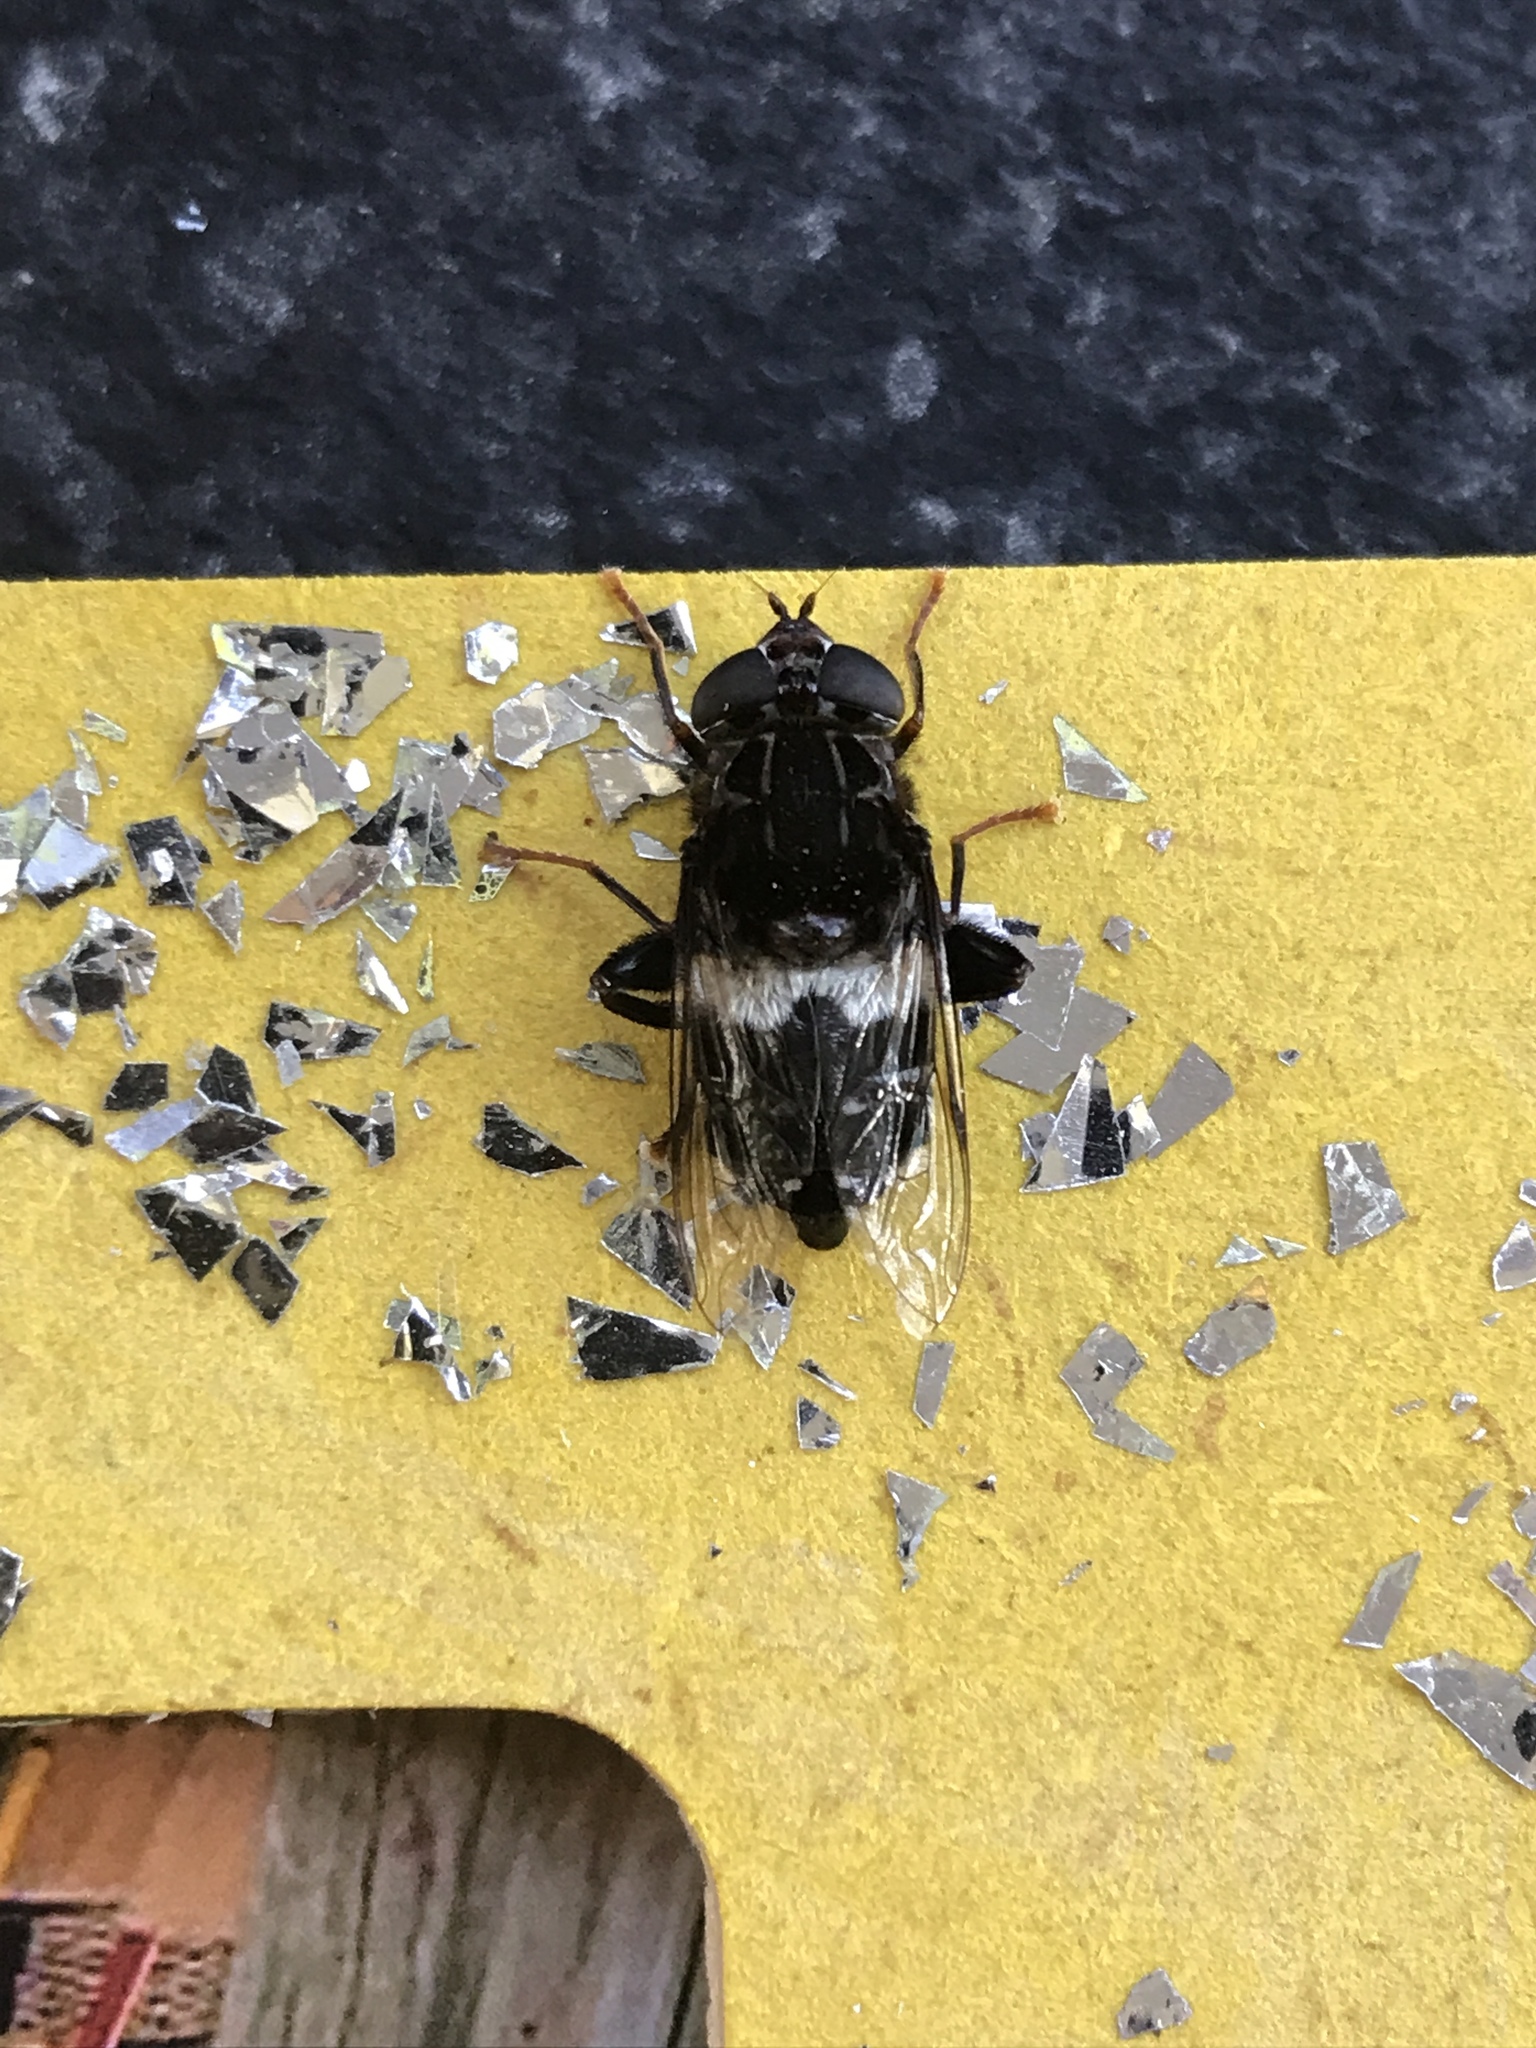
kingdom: Animalia
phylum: Arthropoda
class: Insecta
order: Diptera
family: Syrphidae
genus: Helophilus
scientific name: Helophilus cingulatus
